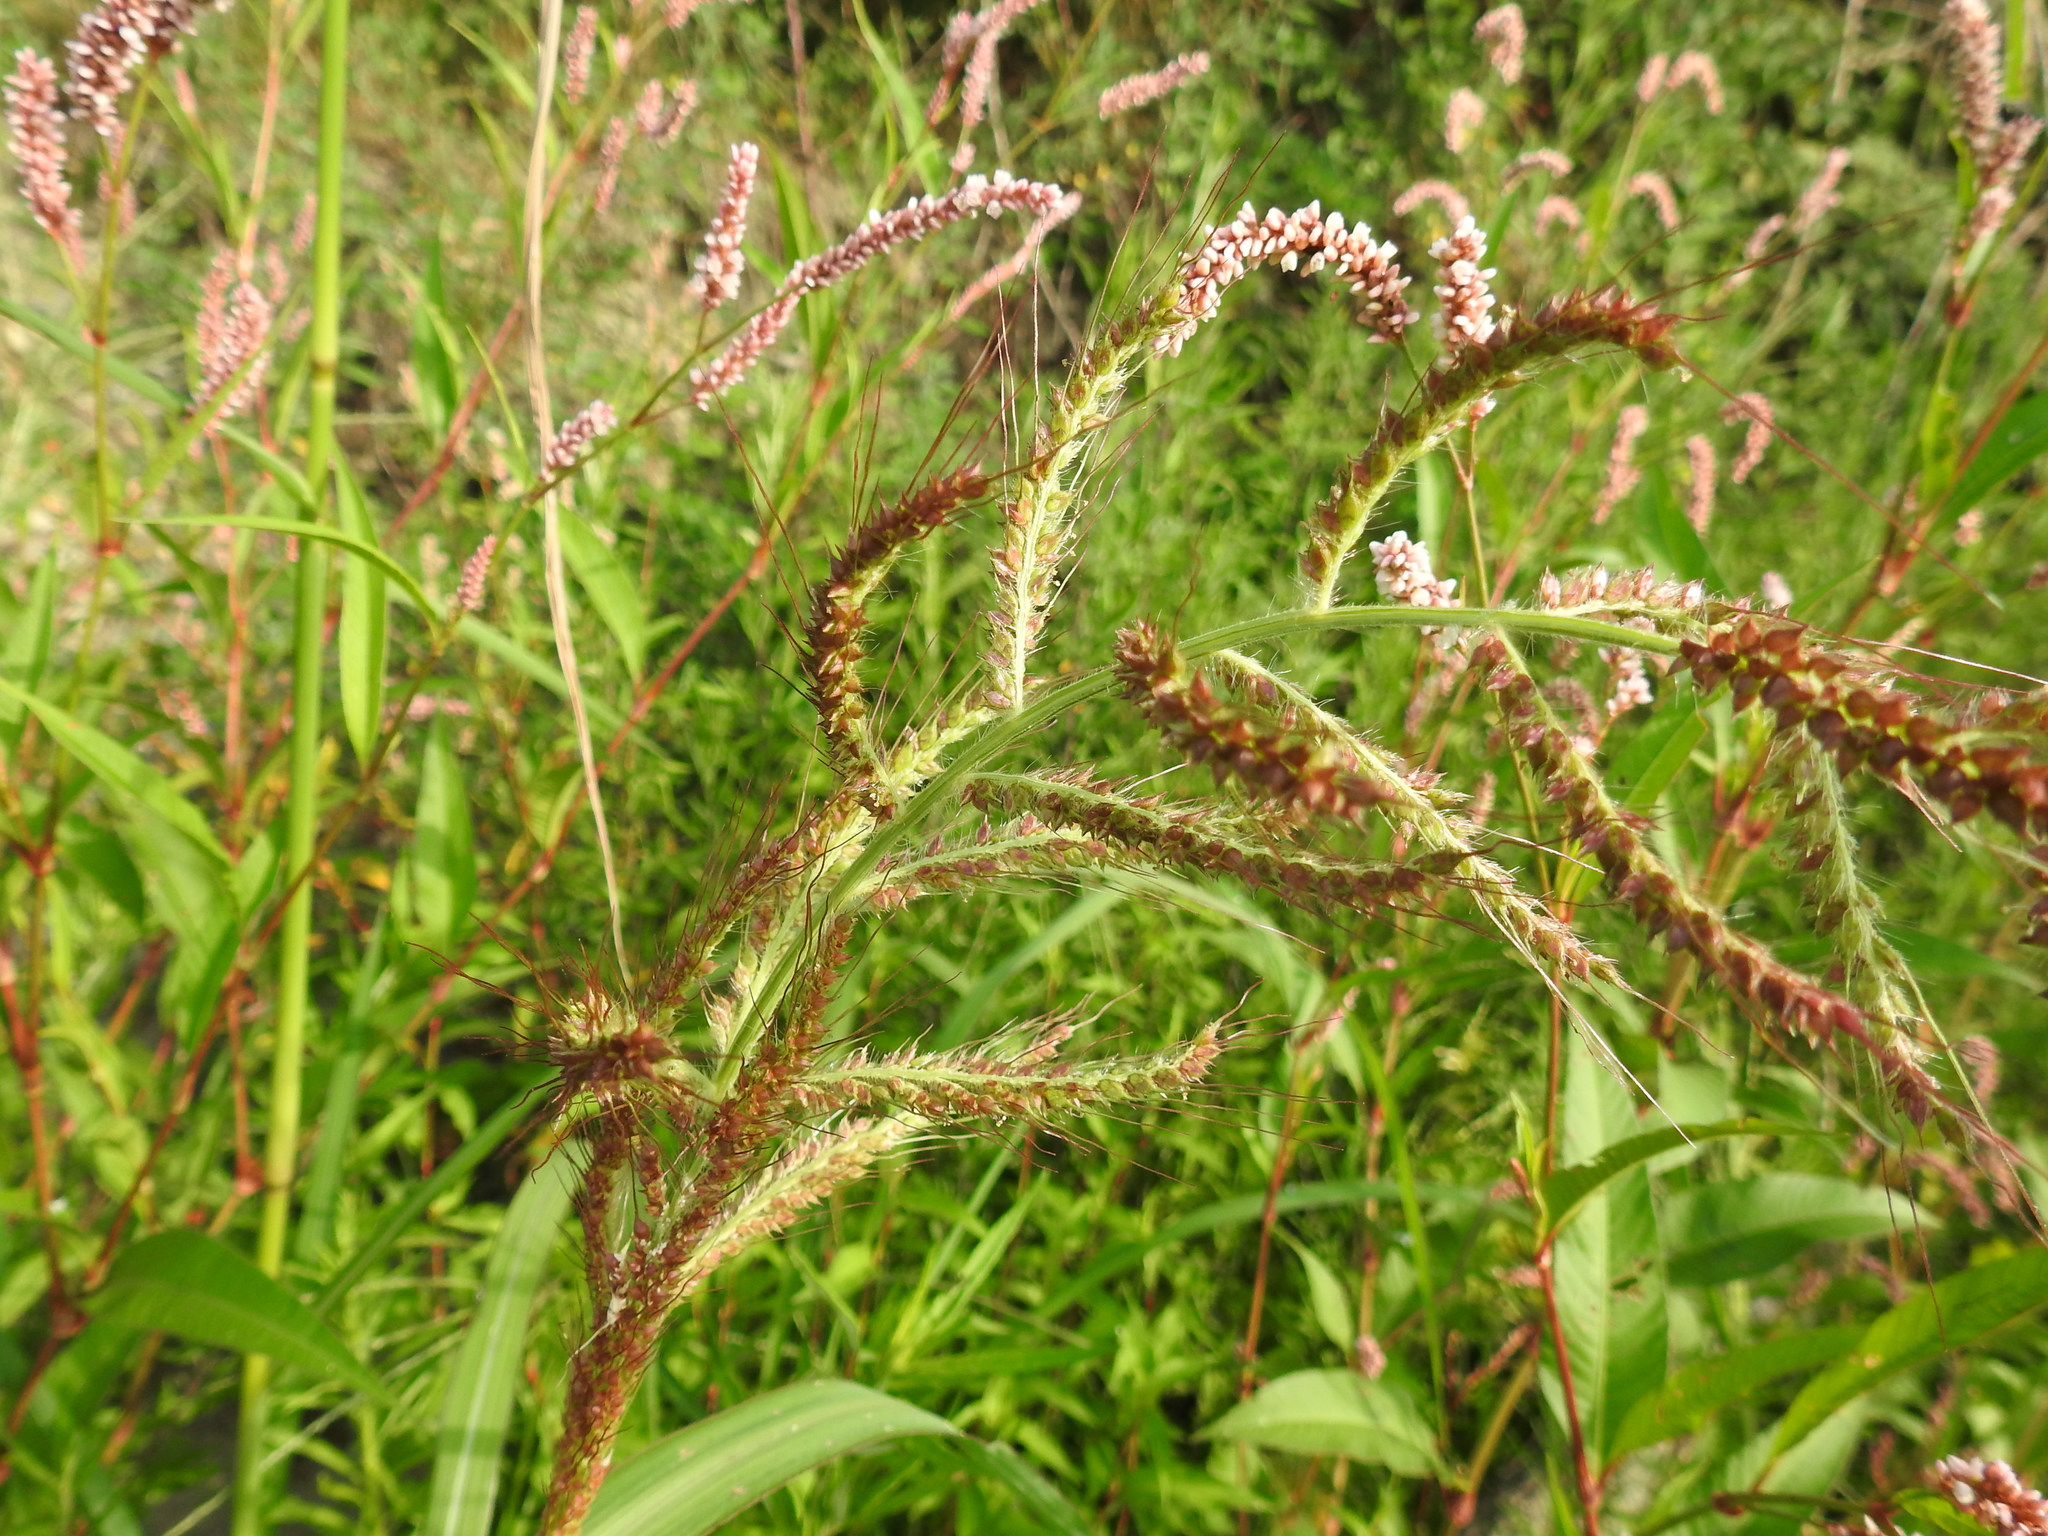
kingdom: Plantae
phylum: Tracheophyta
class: Liliopsida
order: Poales
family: Poaceae
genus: Echinochloa
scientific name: Echinochloa crus-galli
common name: Cockspur
